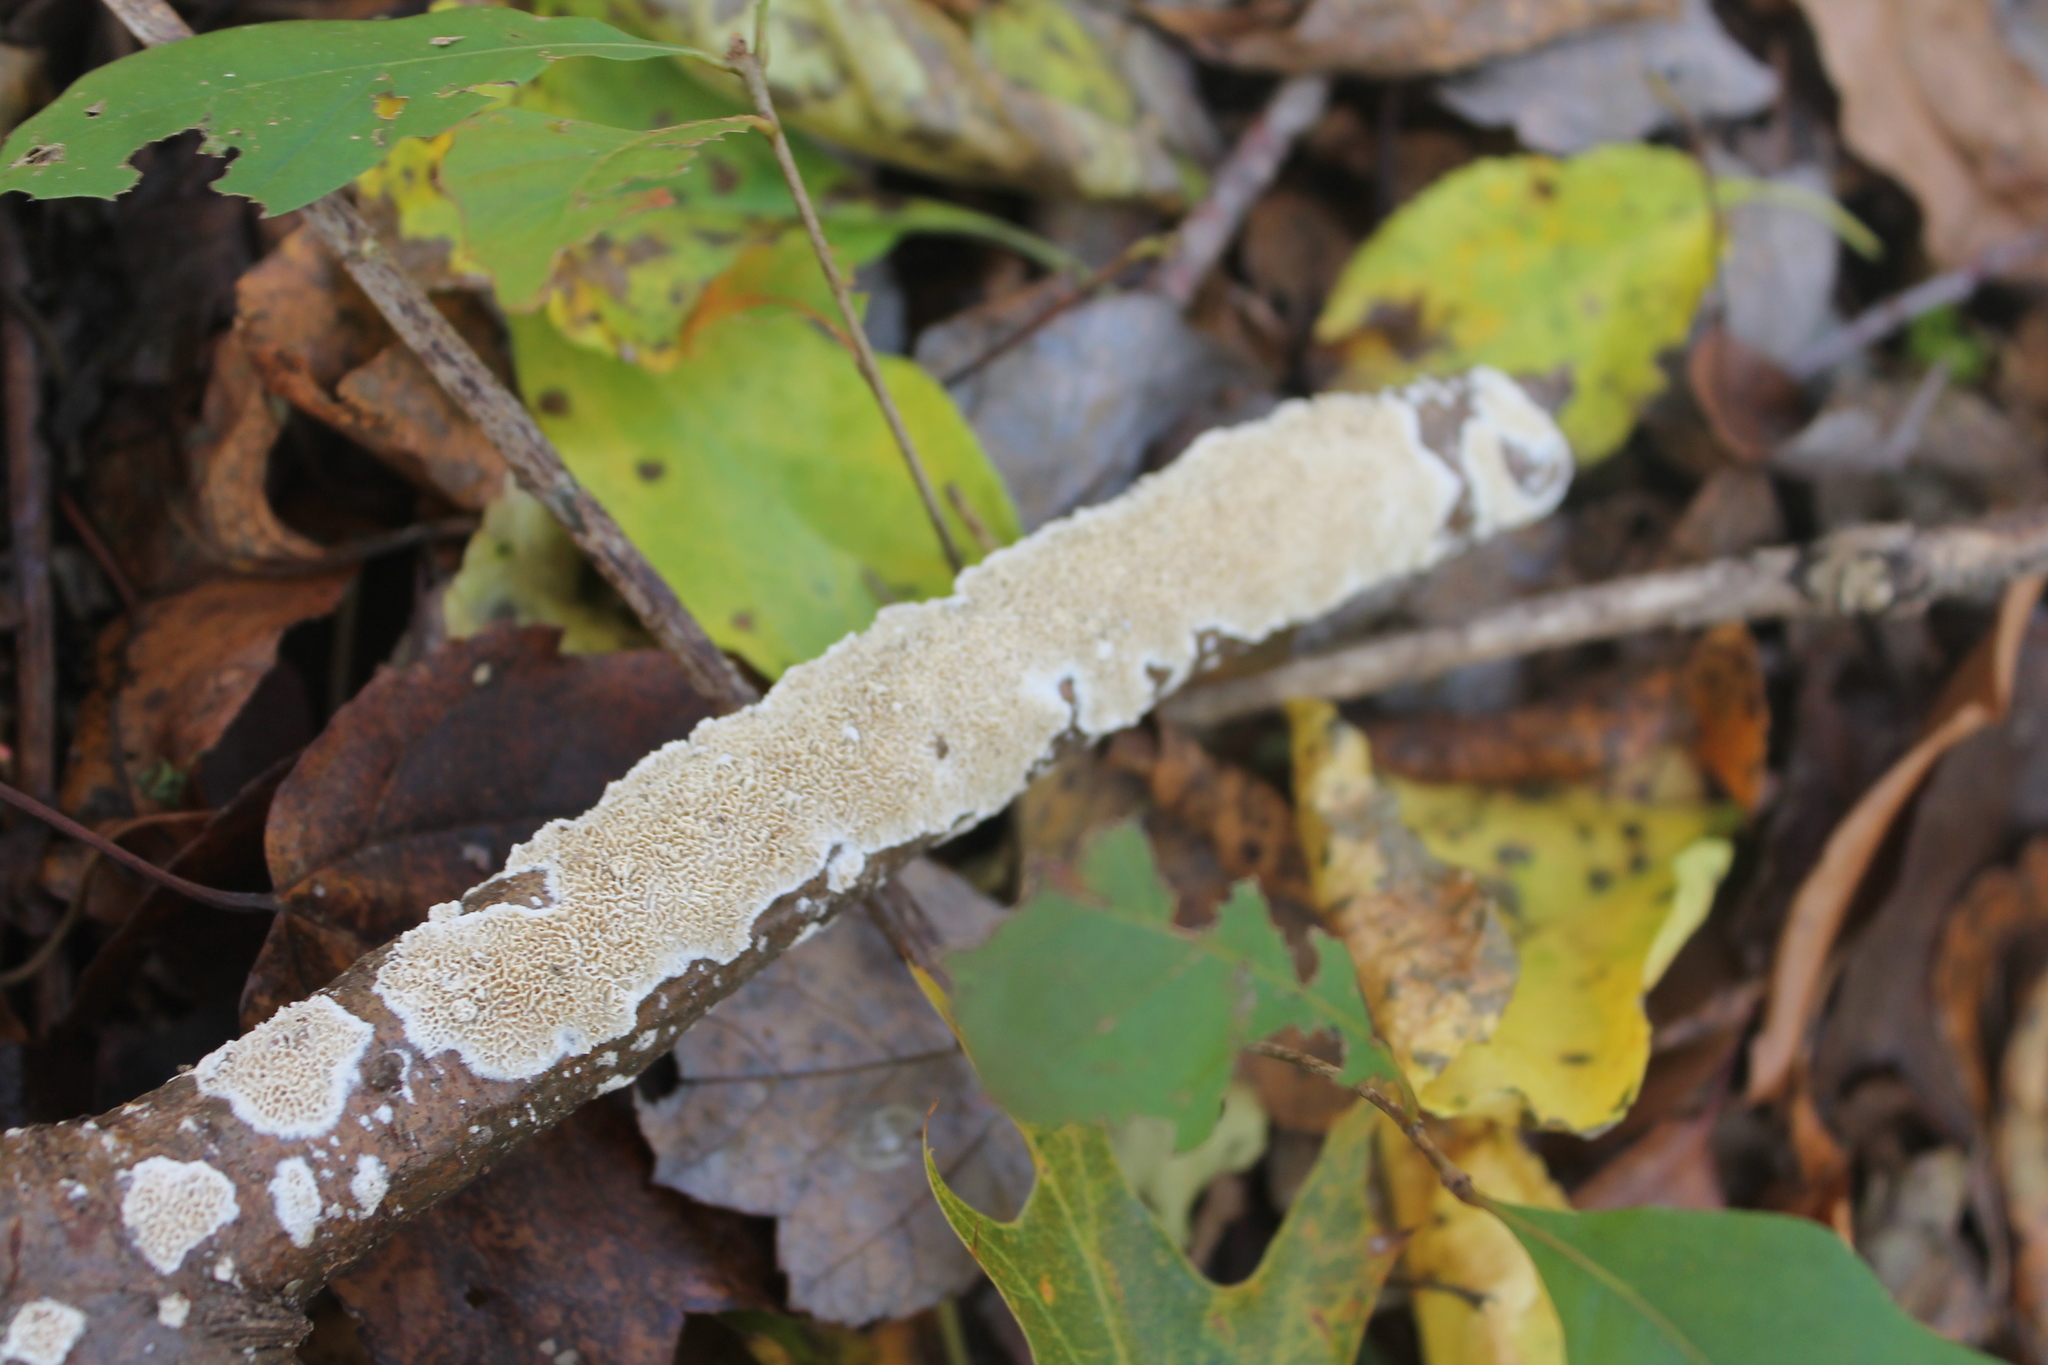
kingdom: Fungi
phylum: Basidiomycota
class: Agaricomycetes
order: Polyporales
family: Irpicaceae
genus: Irpex
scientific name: Irpex lacteus
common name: Milk-white toothed polypore
